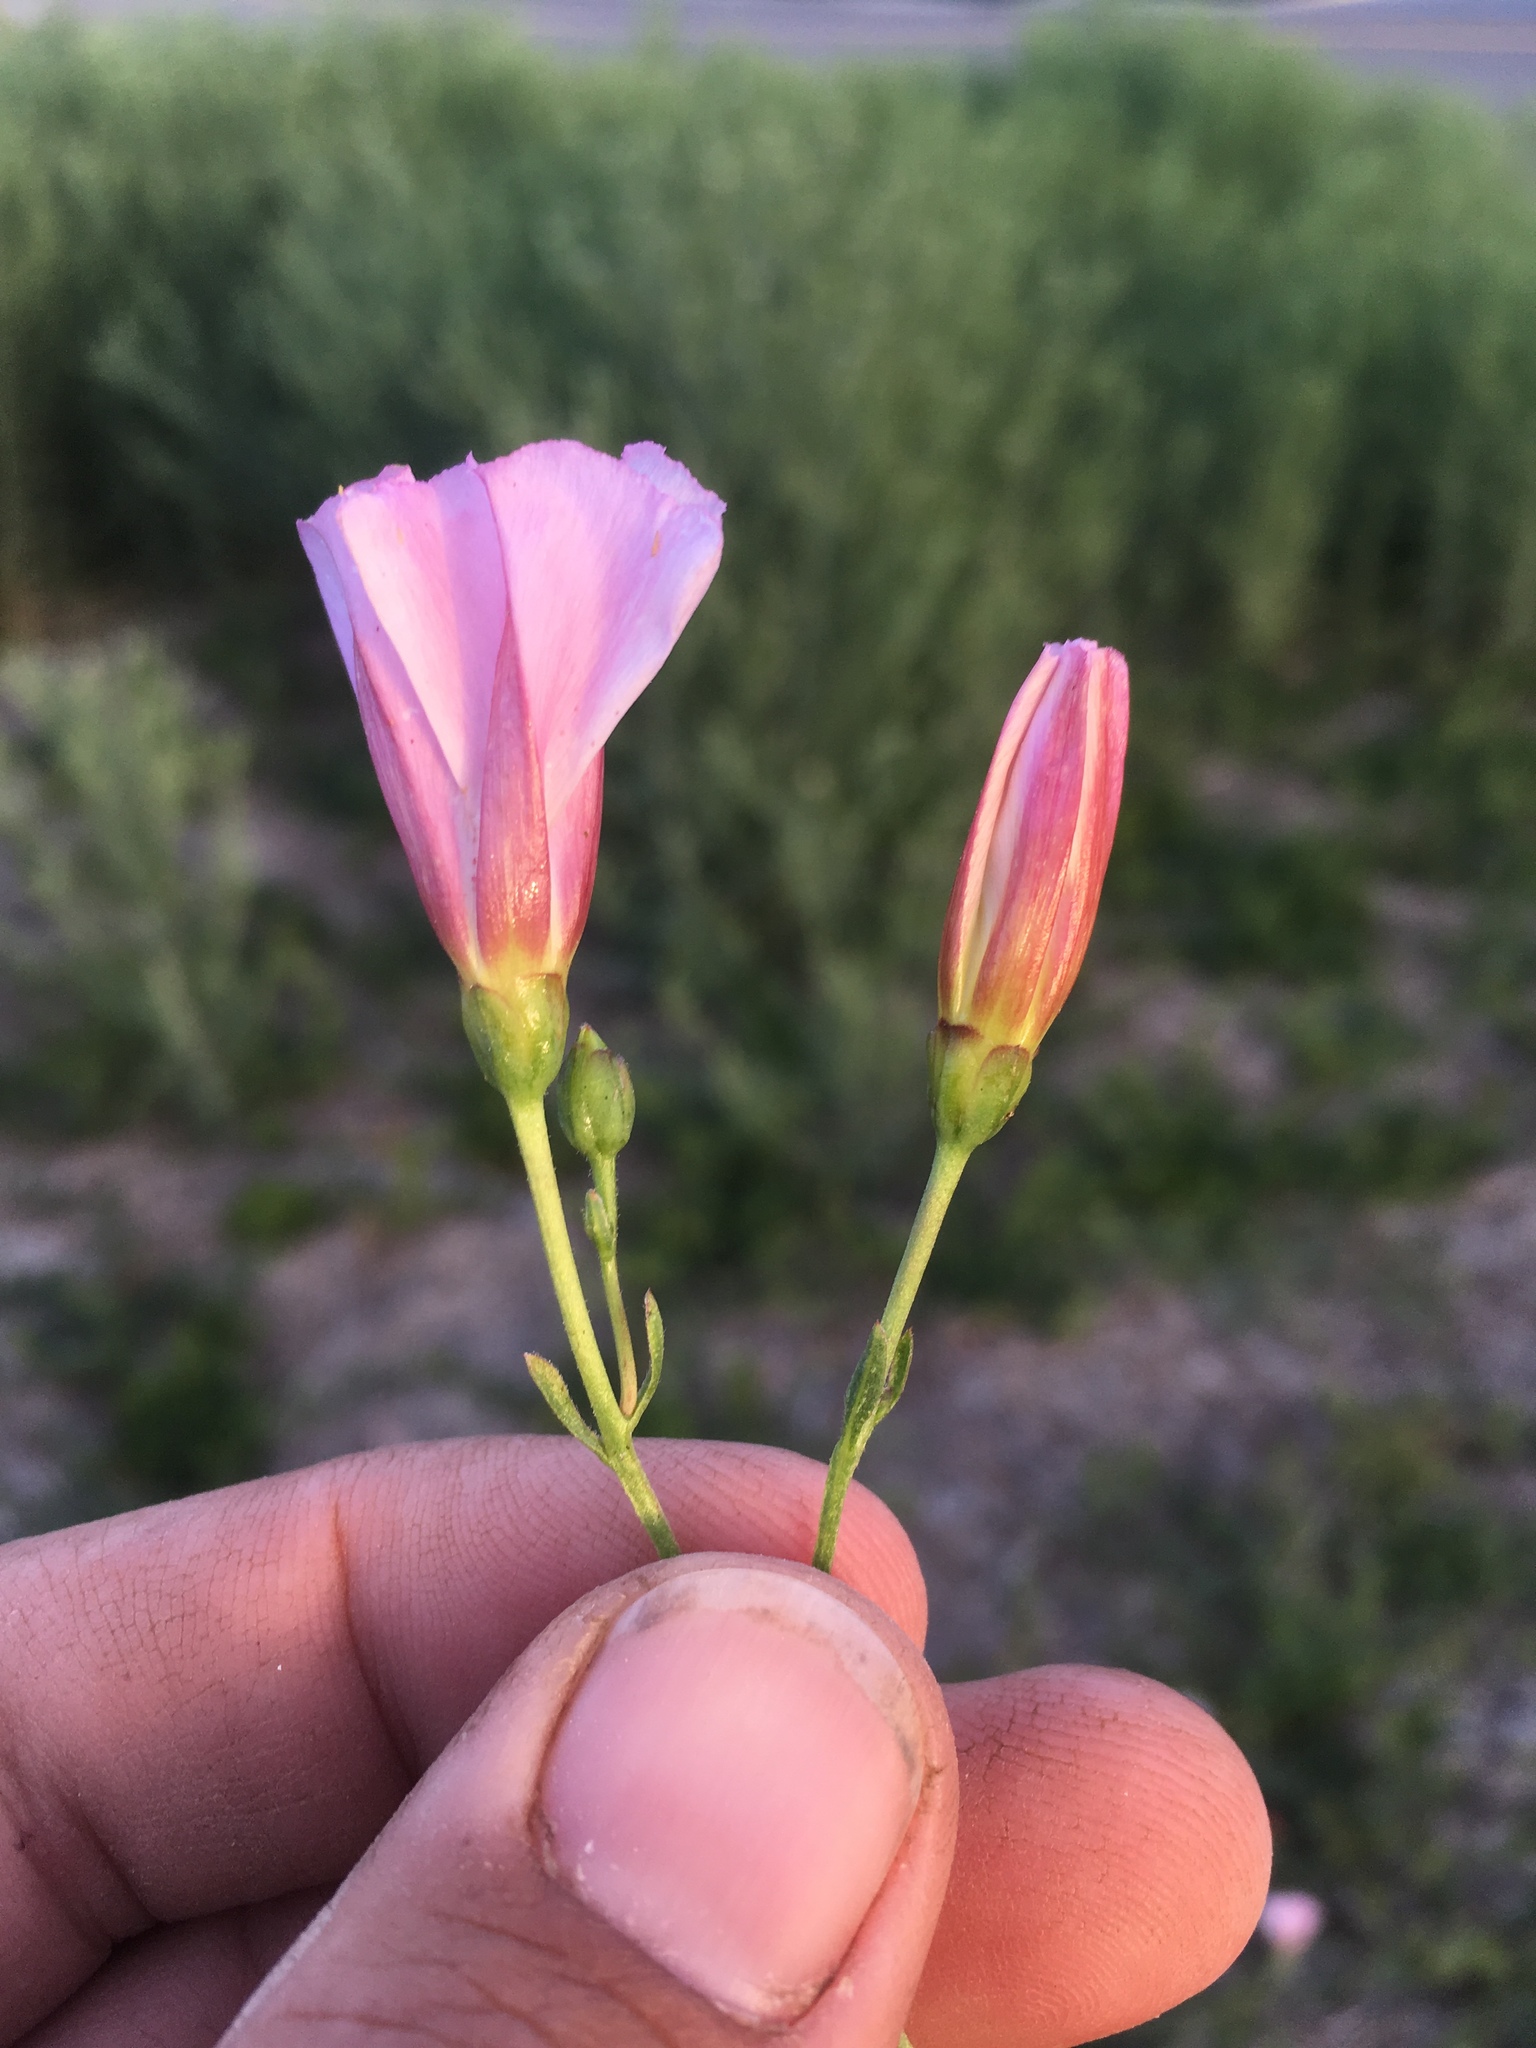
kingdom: Plantae
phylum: Tracheophyta
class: Magnoliopsida
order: Solanales
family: Convolvulaceae
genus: Convolvulus
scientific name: Convolvulus arvensis
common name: Field bindweed
